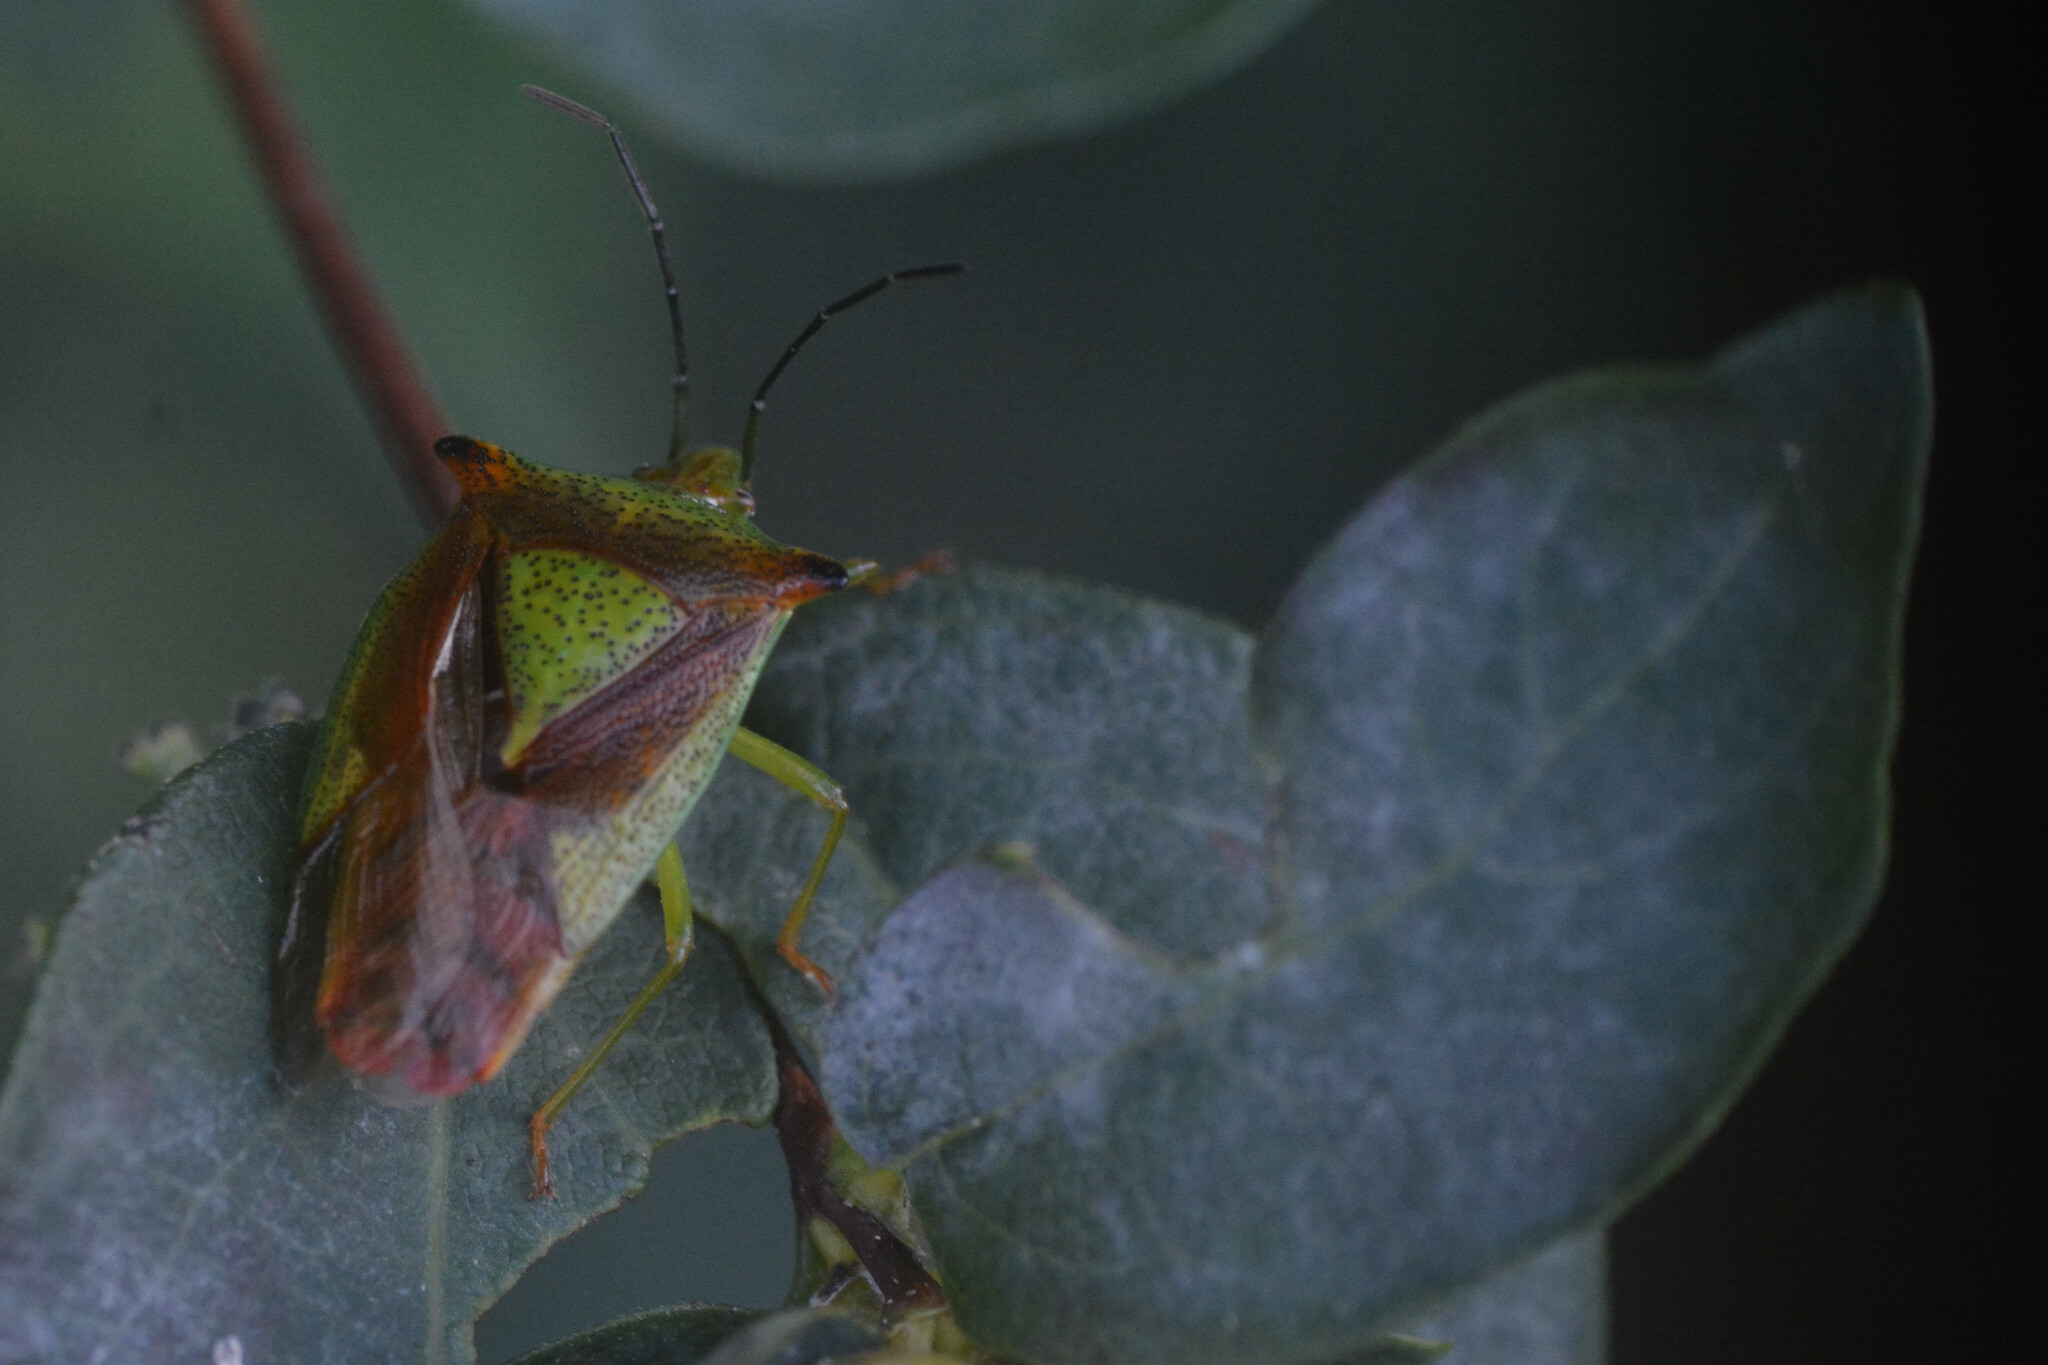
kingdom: Animalia
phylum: Arthropoda
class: Insecta
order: Hemiptera
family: Acanthosomatidae
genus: Acanthosoma
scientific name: Acanthosoma haemorrhoidale
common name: Hawthorn shieldbug
